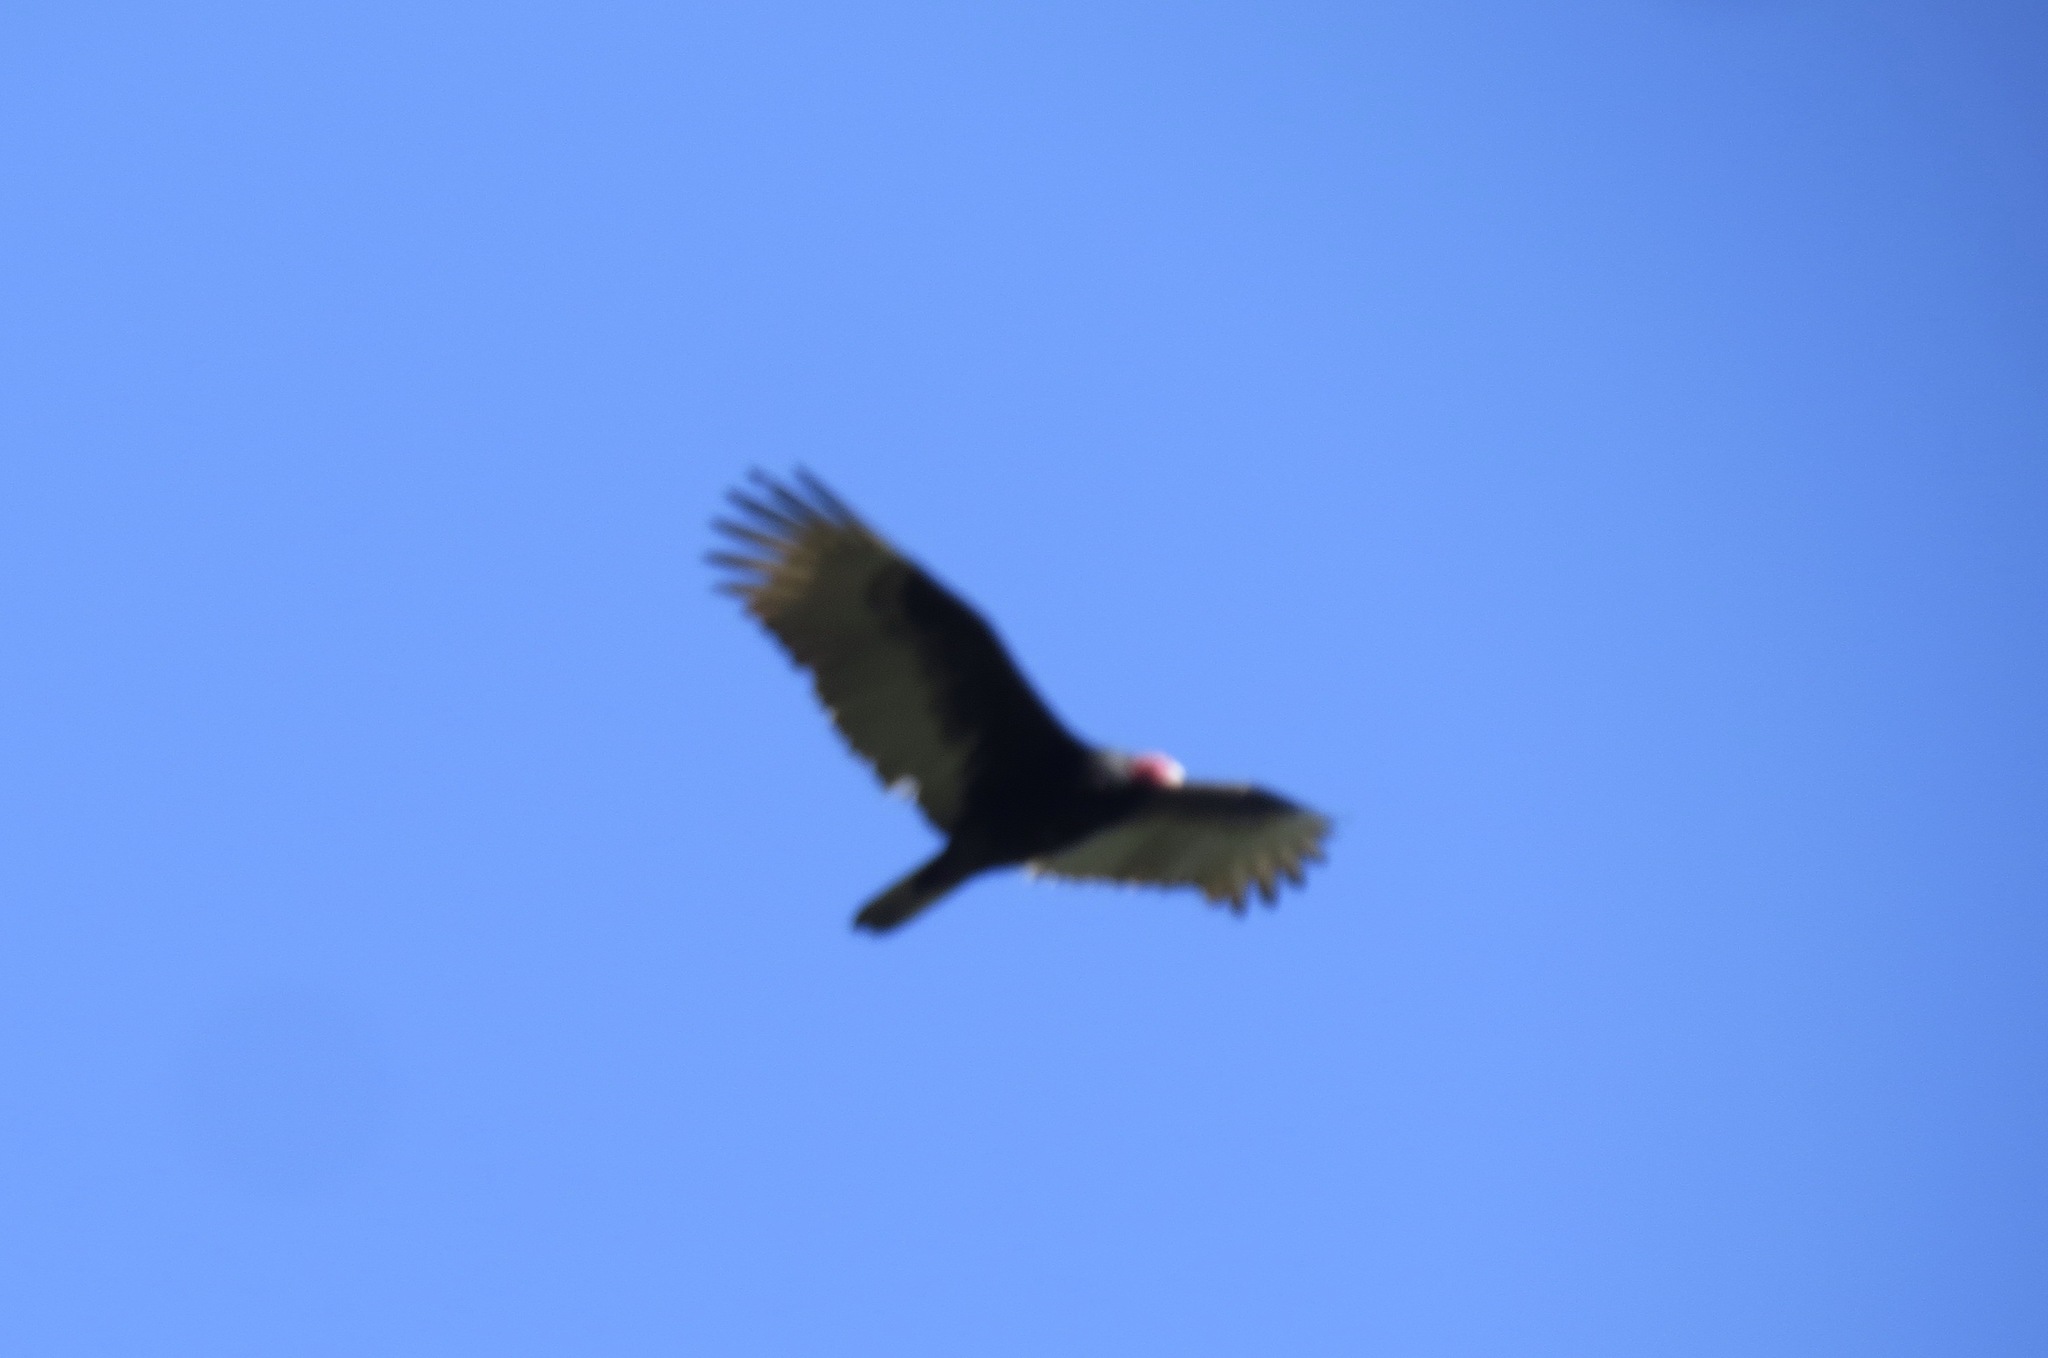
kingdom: Animalia
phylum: Chordata
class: Aves
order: Accipitriformes
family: Cathartidae
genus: Cathartes
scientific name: Cathartes aura
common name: Turkey vulture
